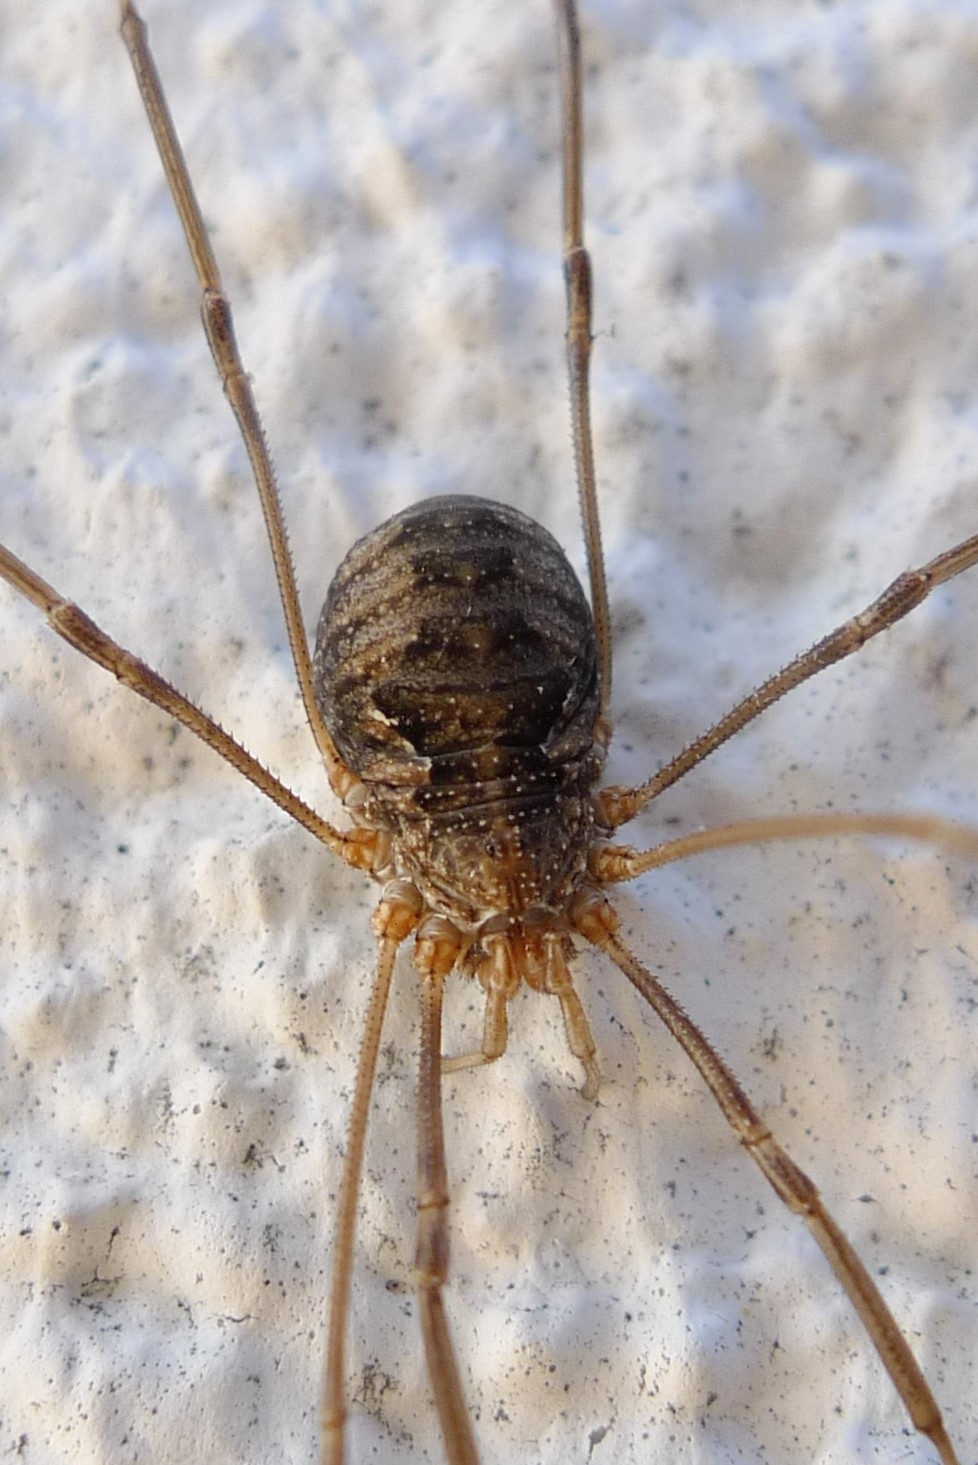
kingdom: Animalia
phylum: Arthropoda
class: Arachnida
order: Opiliones
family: Phalangiidae
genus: Phalangium
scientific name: Phalangium opilio
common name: Daddy longleg
